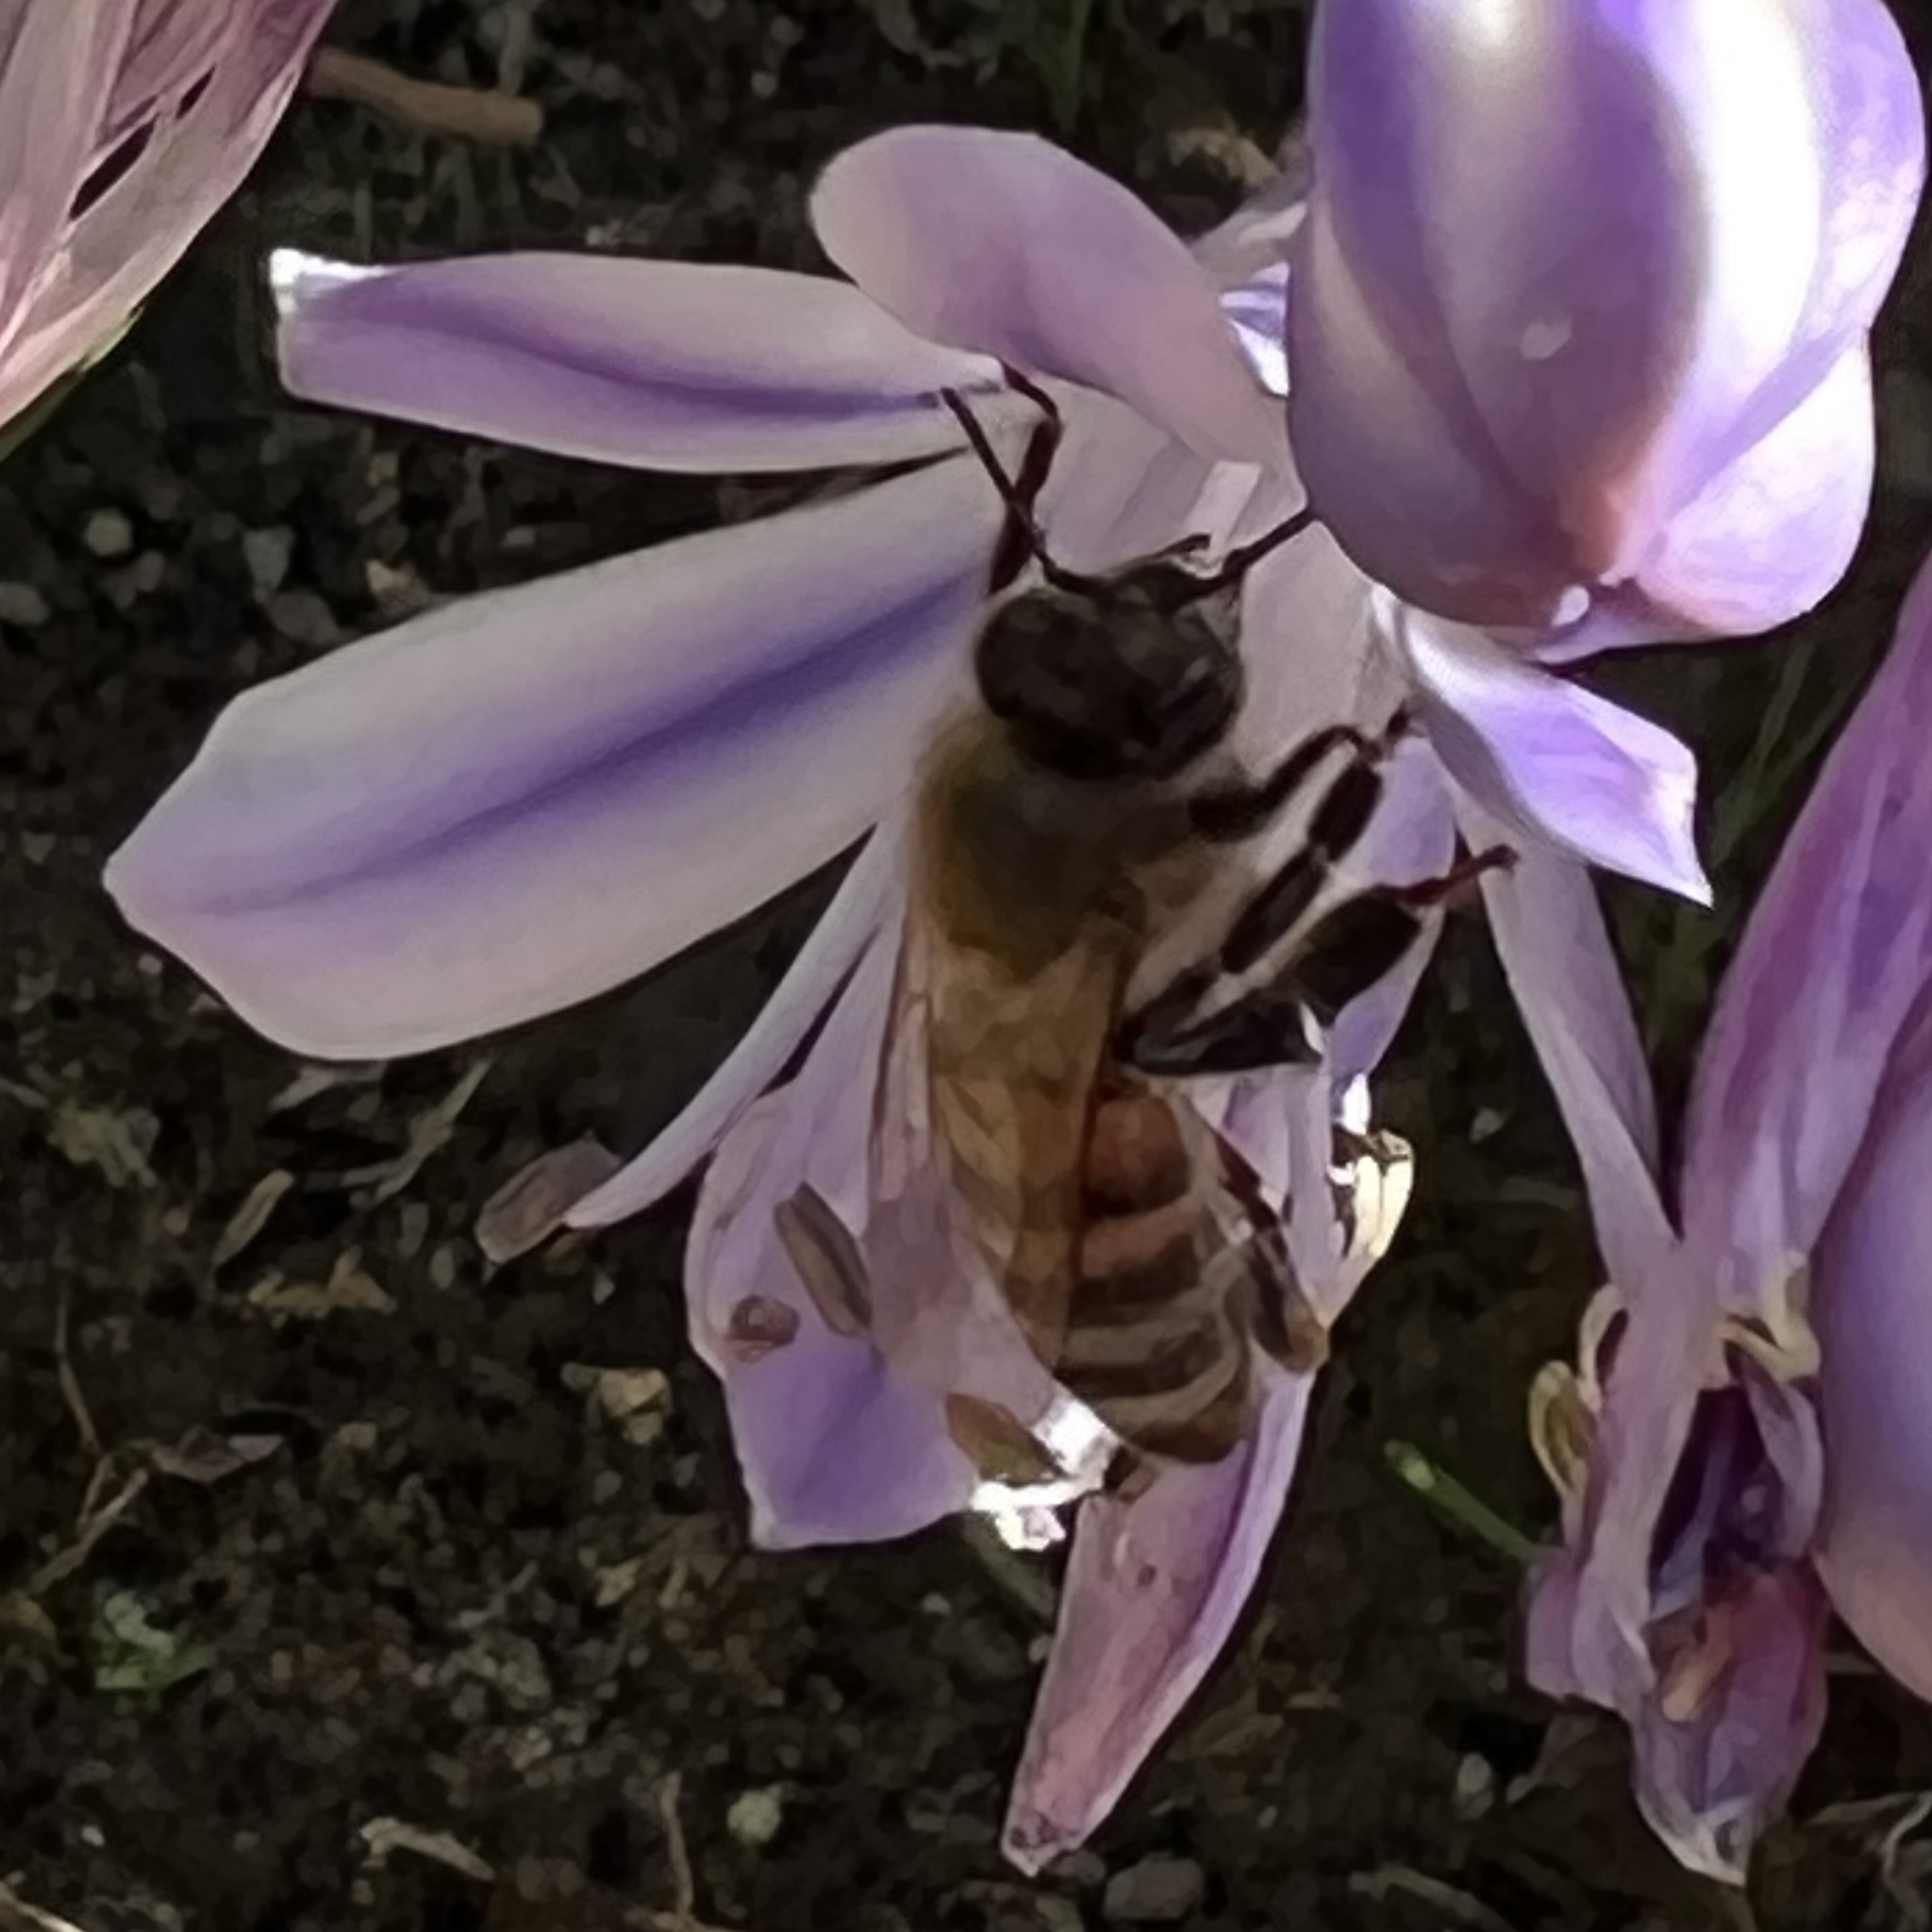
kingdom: Animalia
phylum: Arthropoda
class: Insecta
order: Hymenoptera
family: Apidae
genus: Apis
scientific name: Apis mellifera
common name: Honey bee
